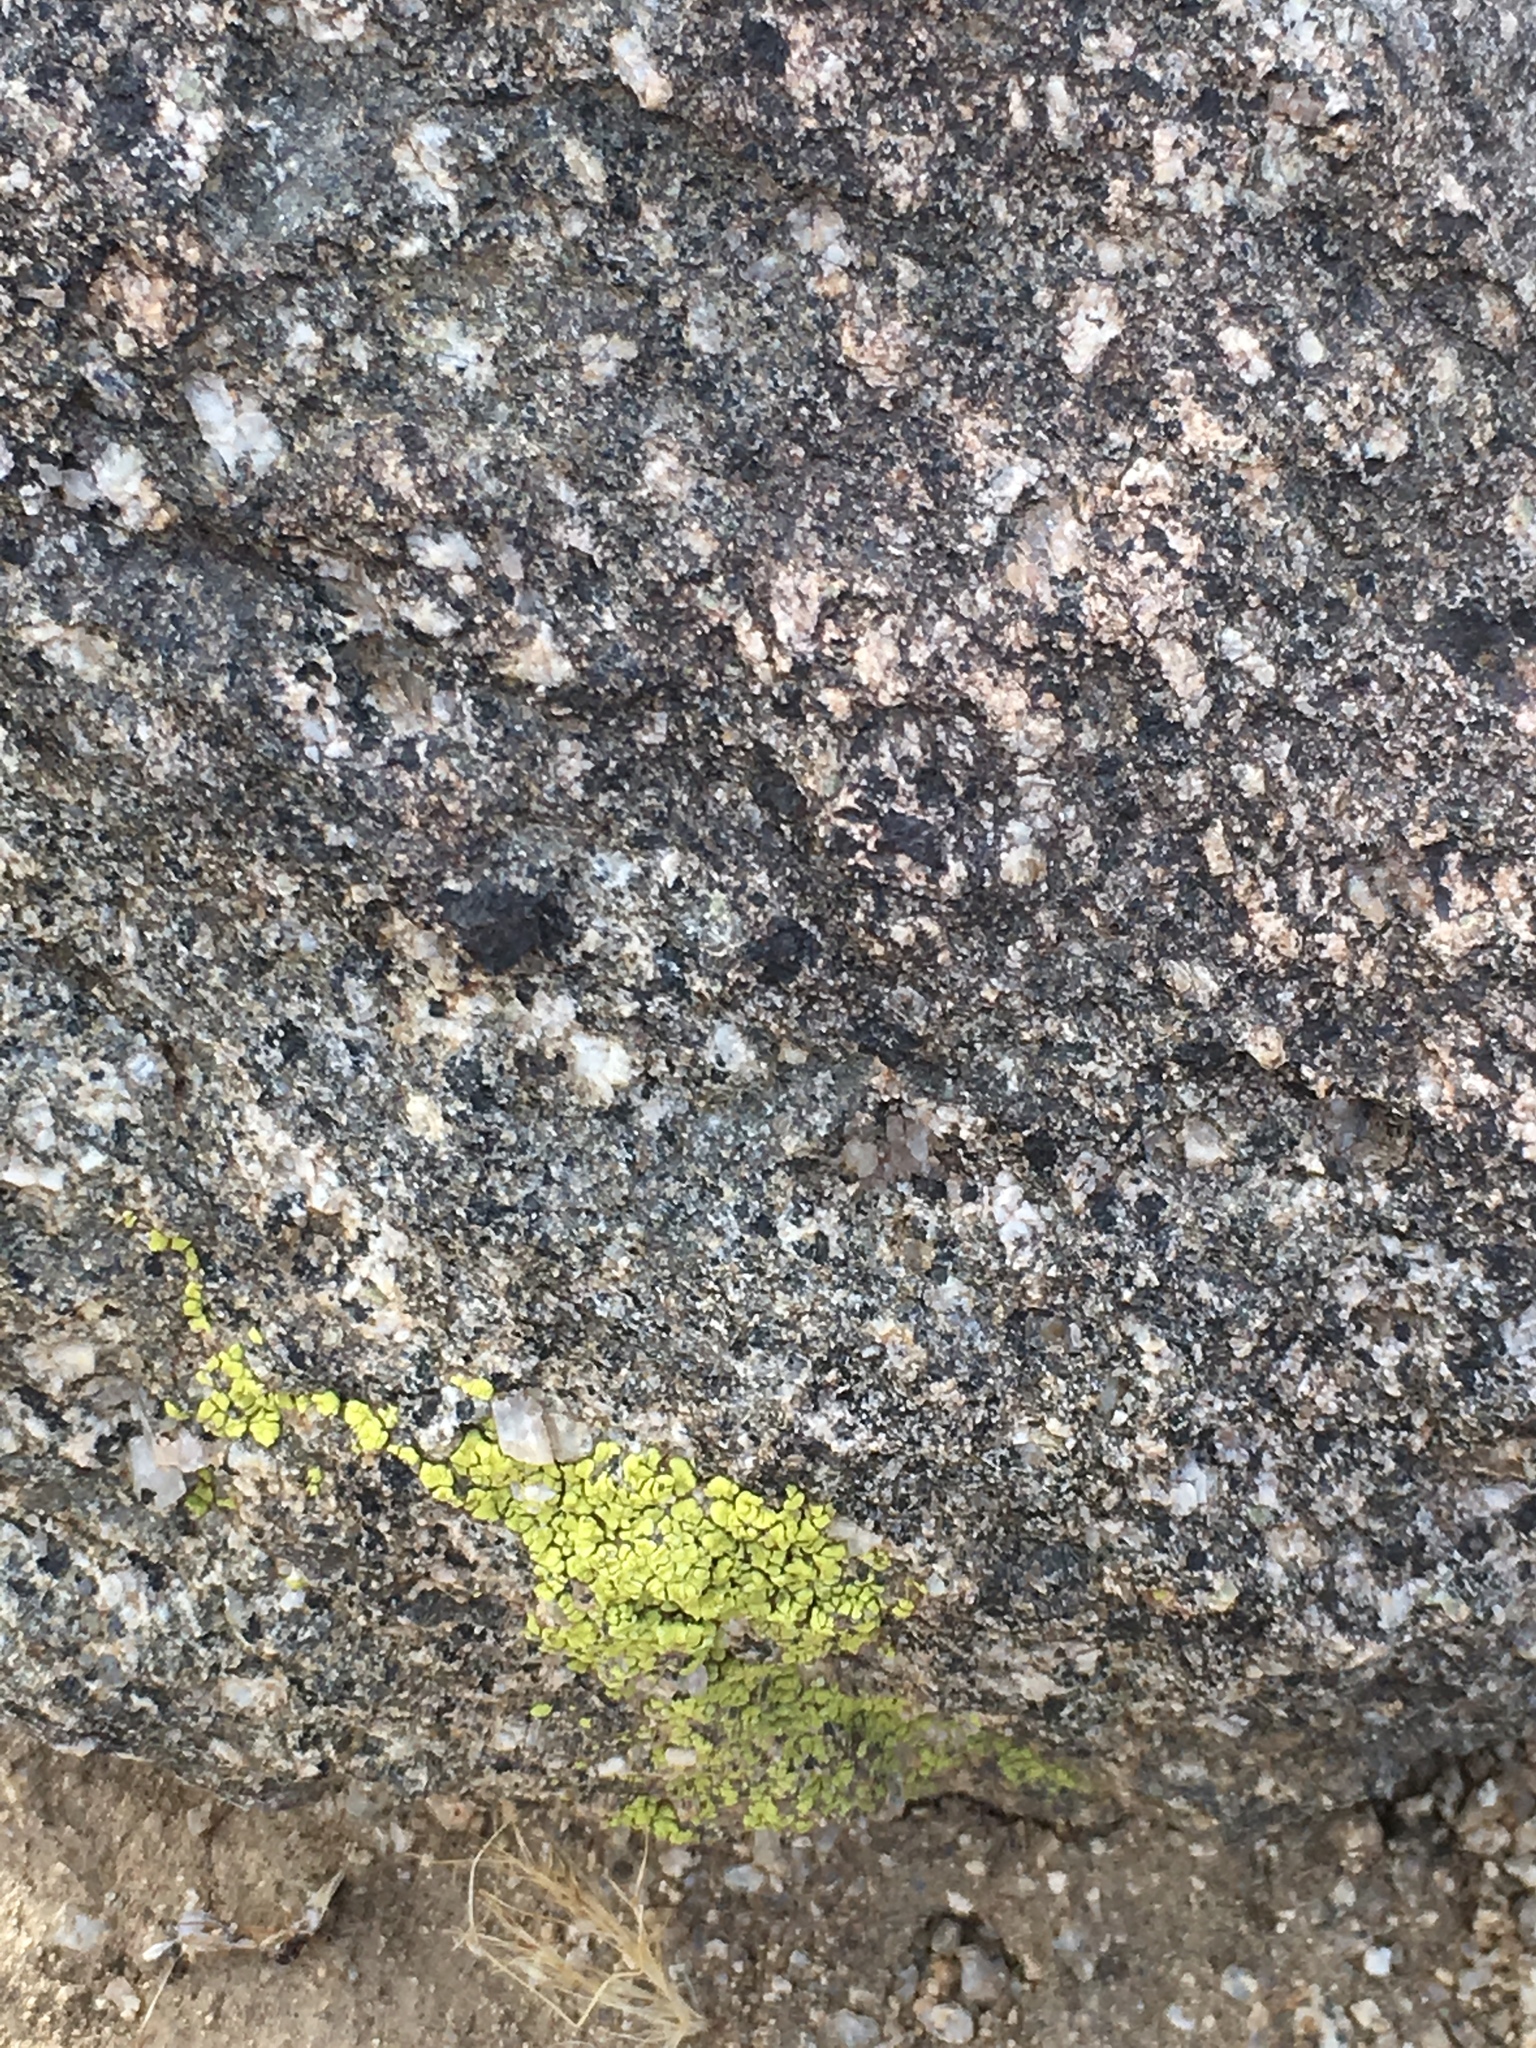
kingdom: Fungi
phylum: Ascomycota
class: Lecanoromycetes
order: Acarosporales
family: Acarosporaceae
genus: Acarospora
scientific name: Acarospora socialis
